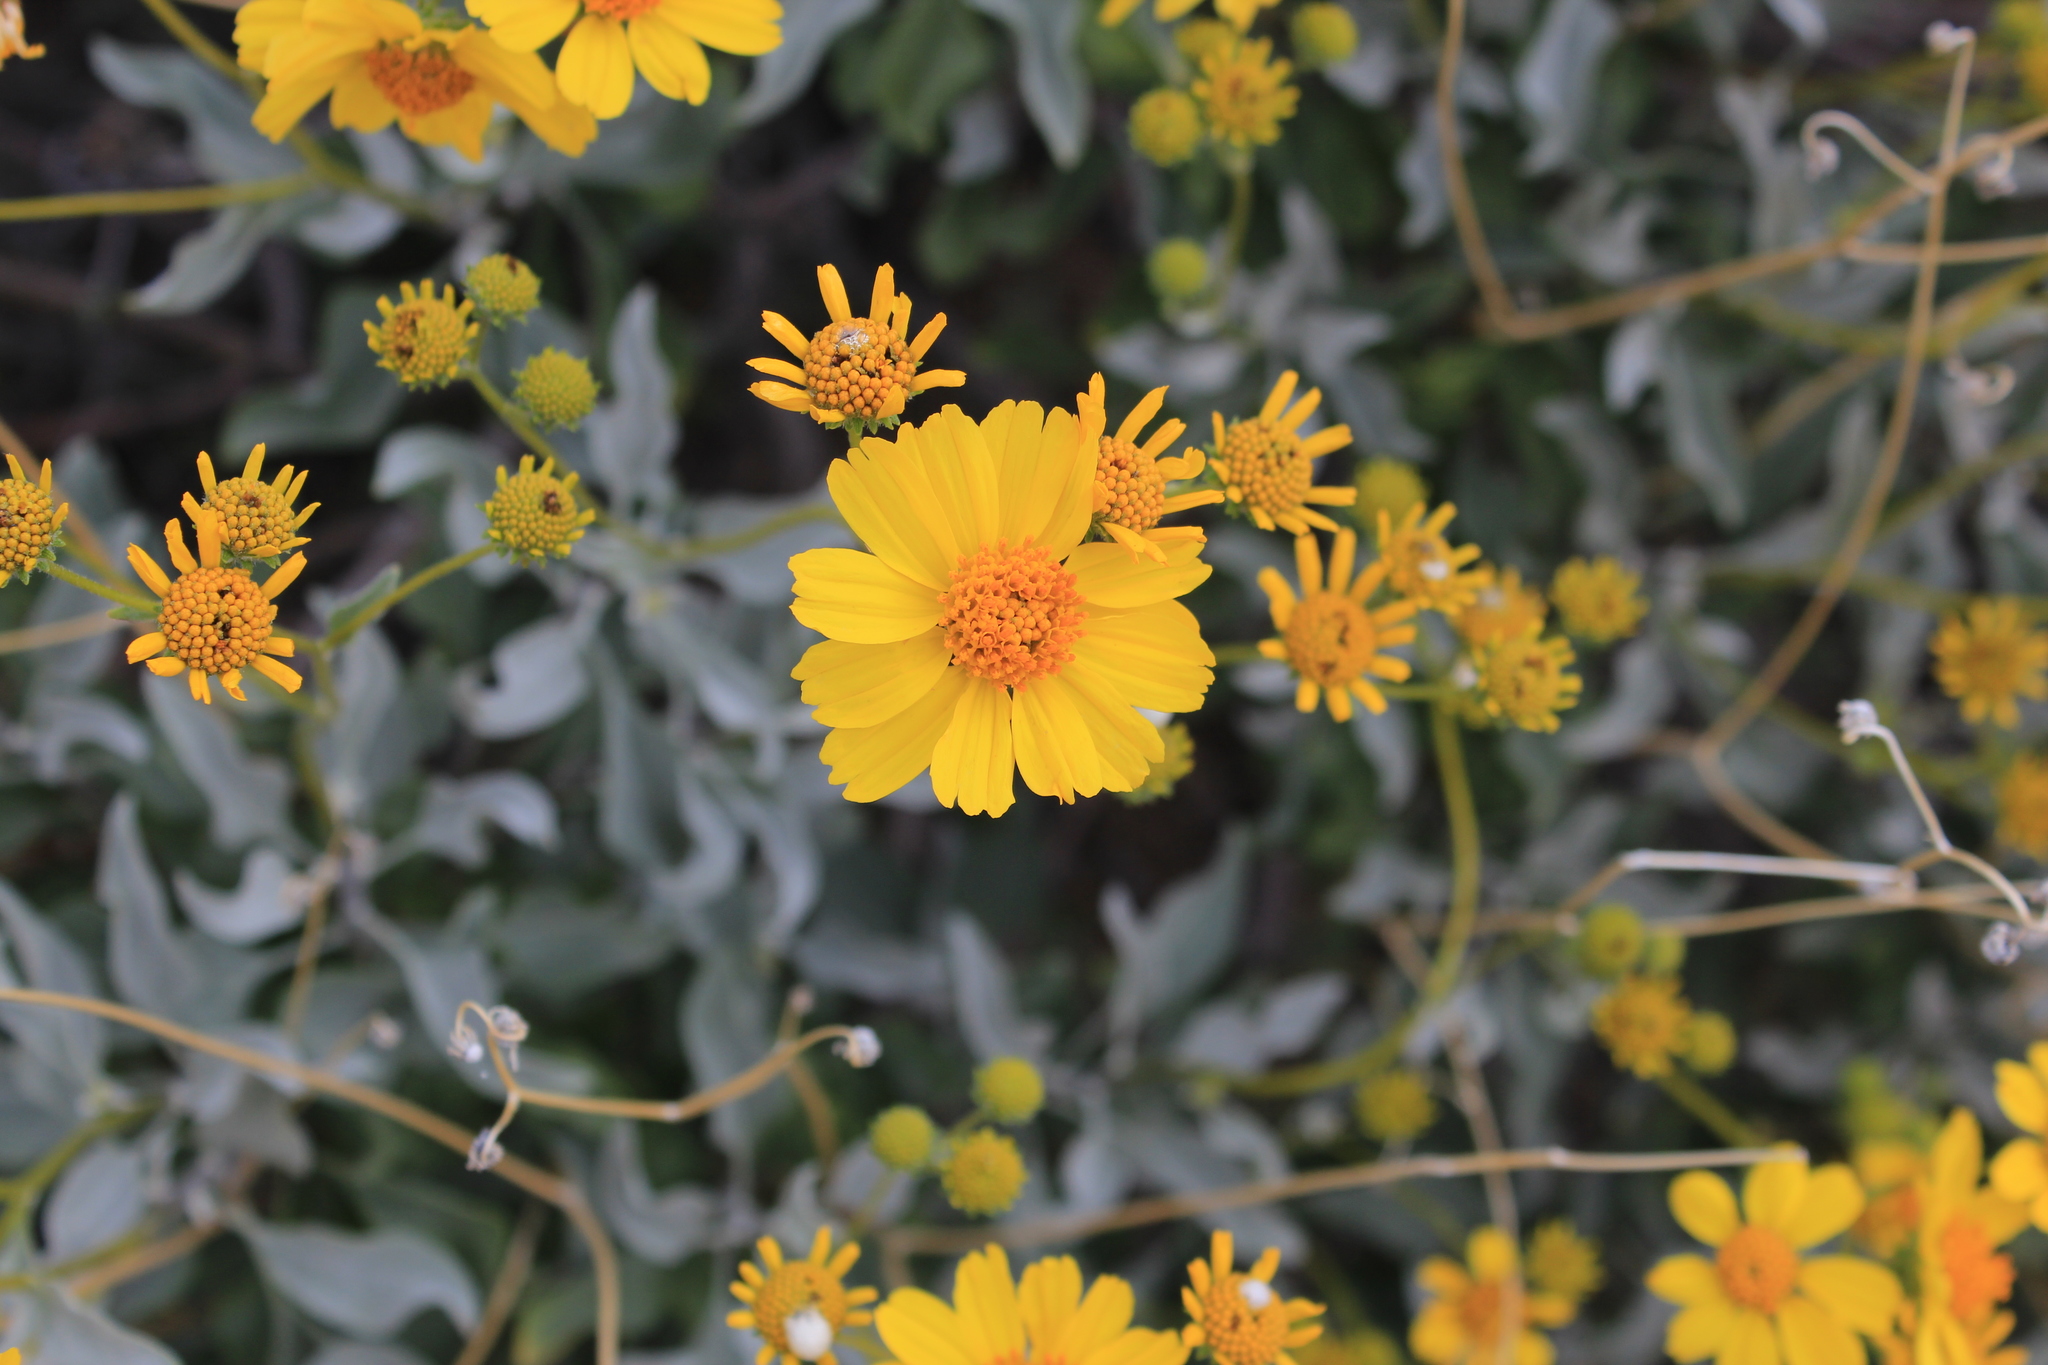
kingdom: Plantae
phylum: Tracheophyta
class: Magnoliopsida
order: Asterales
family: Asteraceae
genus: Encelia
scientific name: Encelia farinosa
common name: Brittlebush
